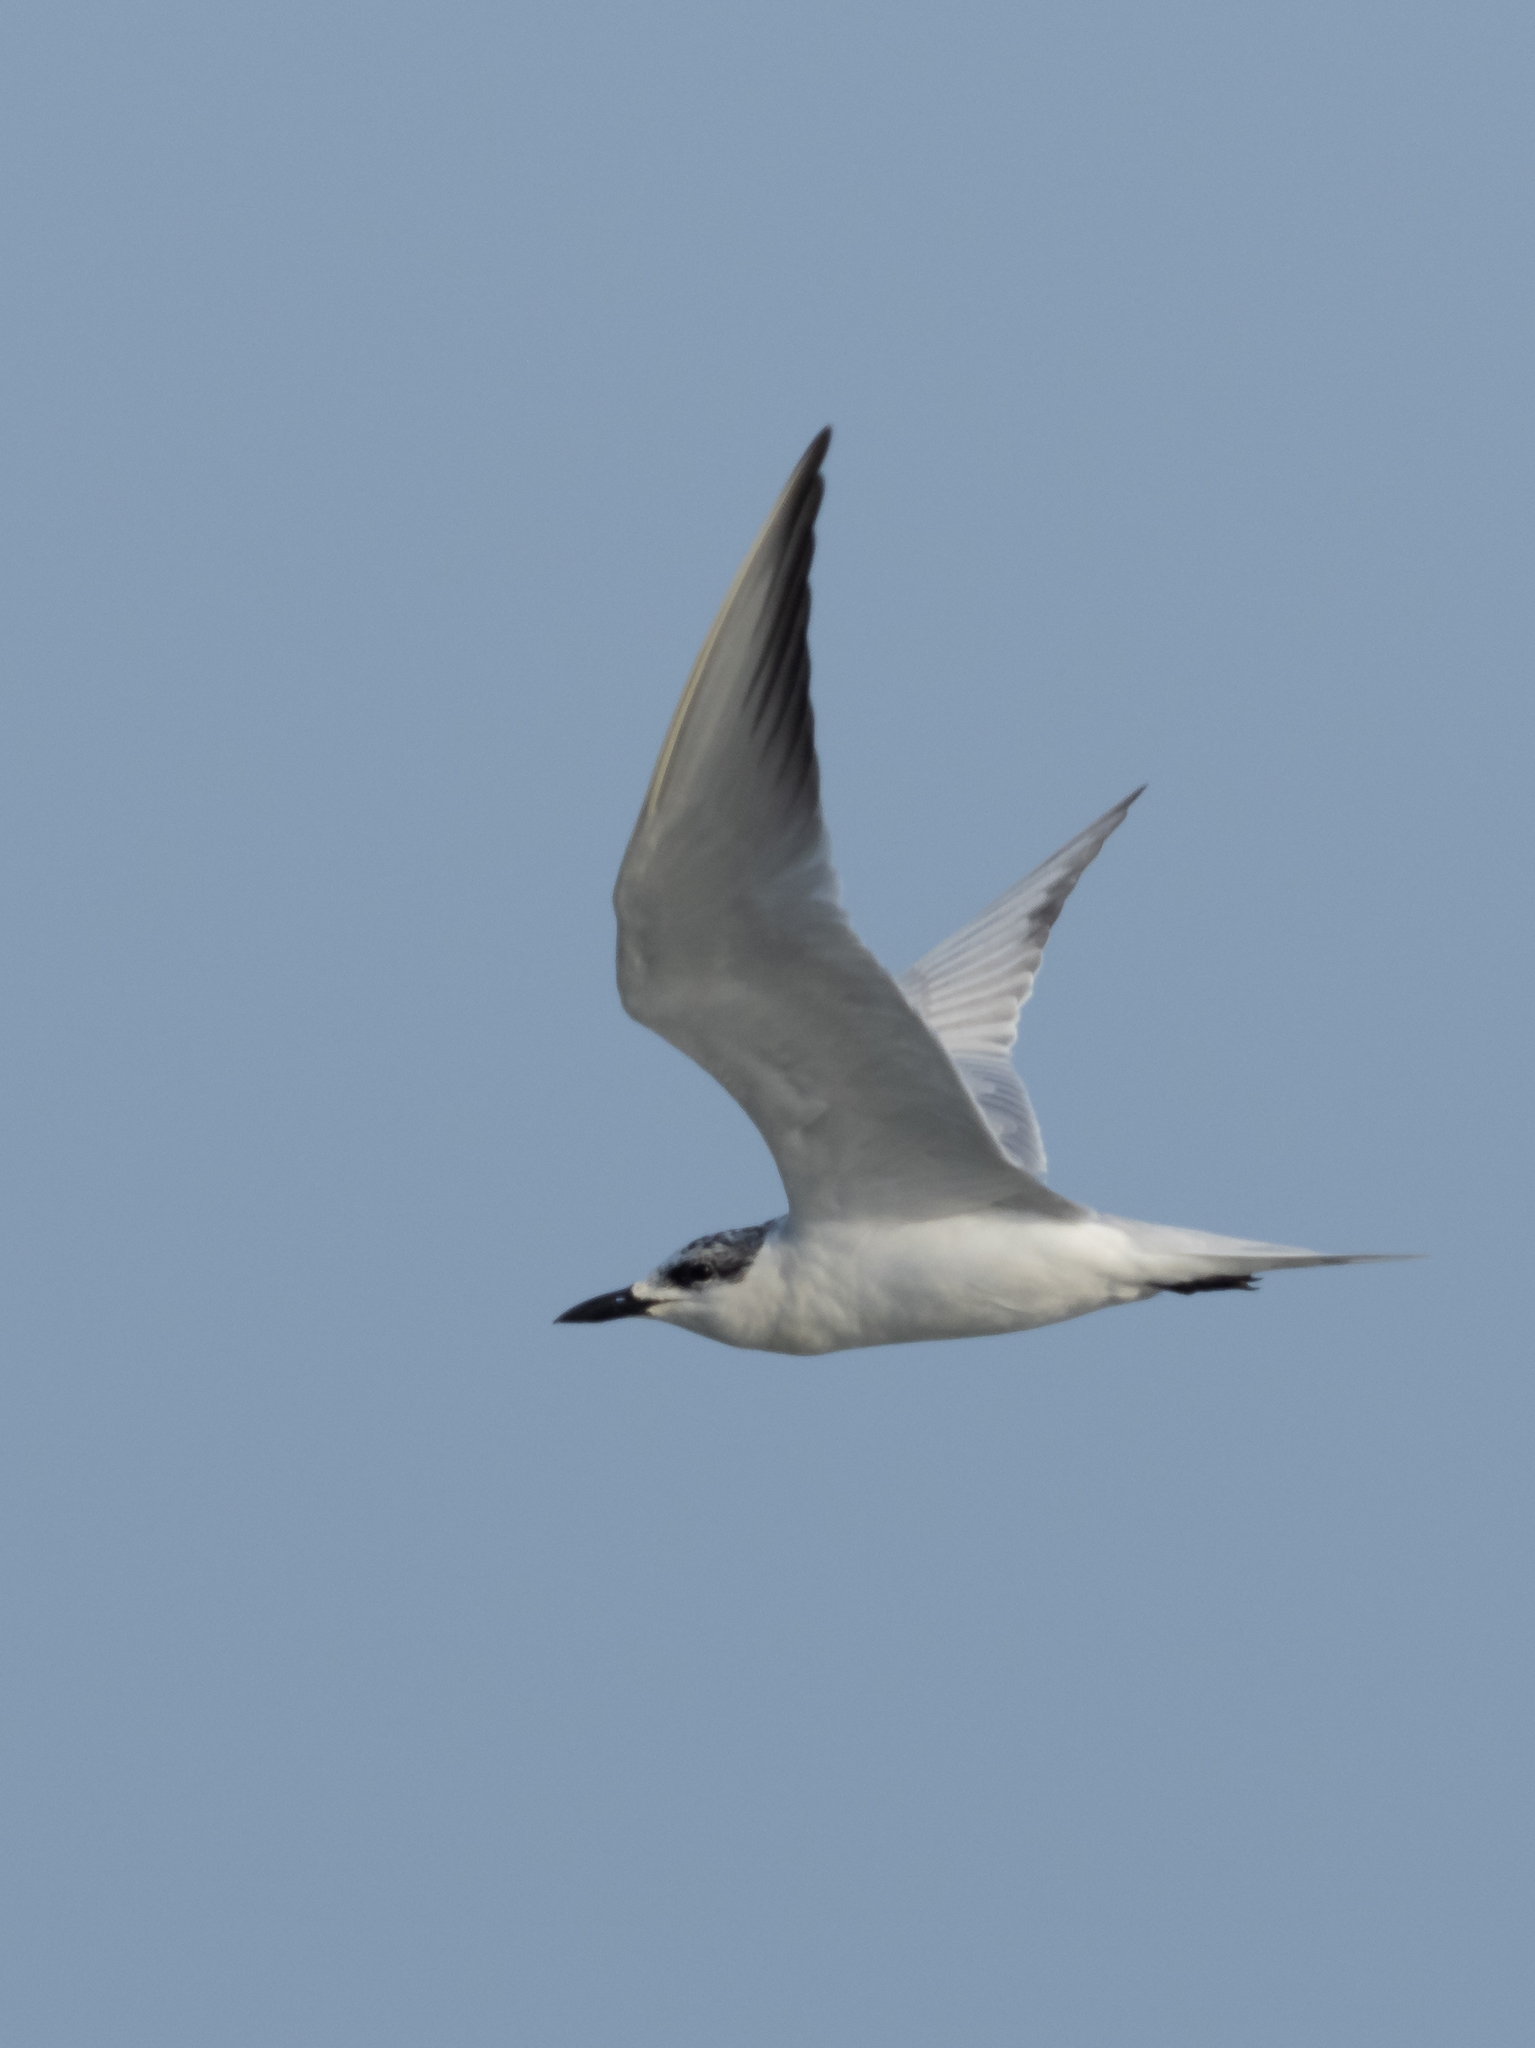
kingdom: Animalia
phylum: Chordata
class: Aves
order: Charadriiformes
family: Laridae
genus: Gelochelidon
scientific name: Gelochelidon nilotica
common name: Gull-billed tern
